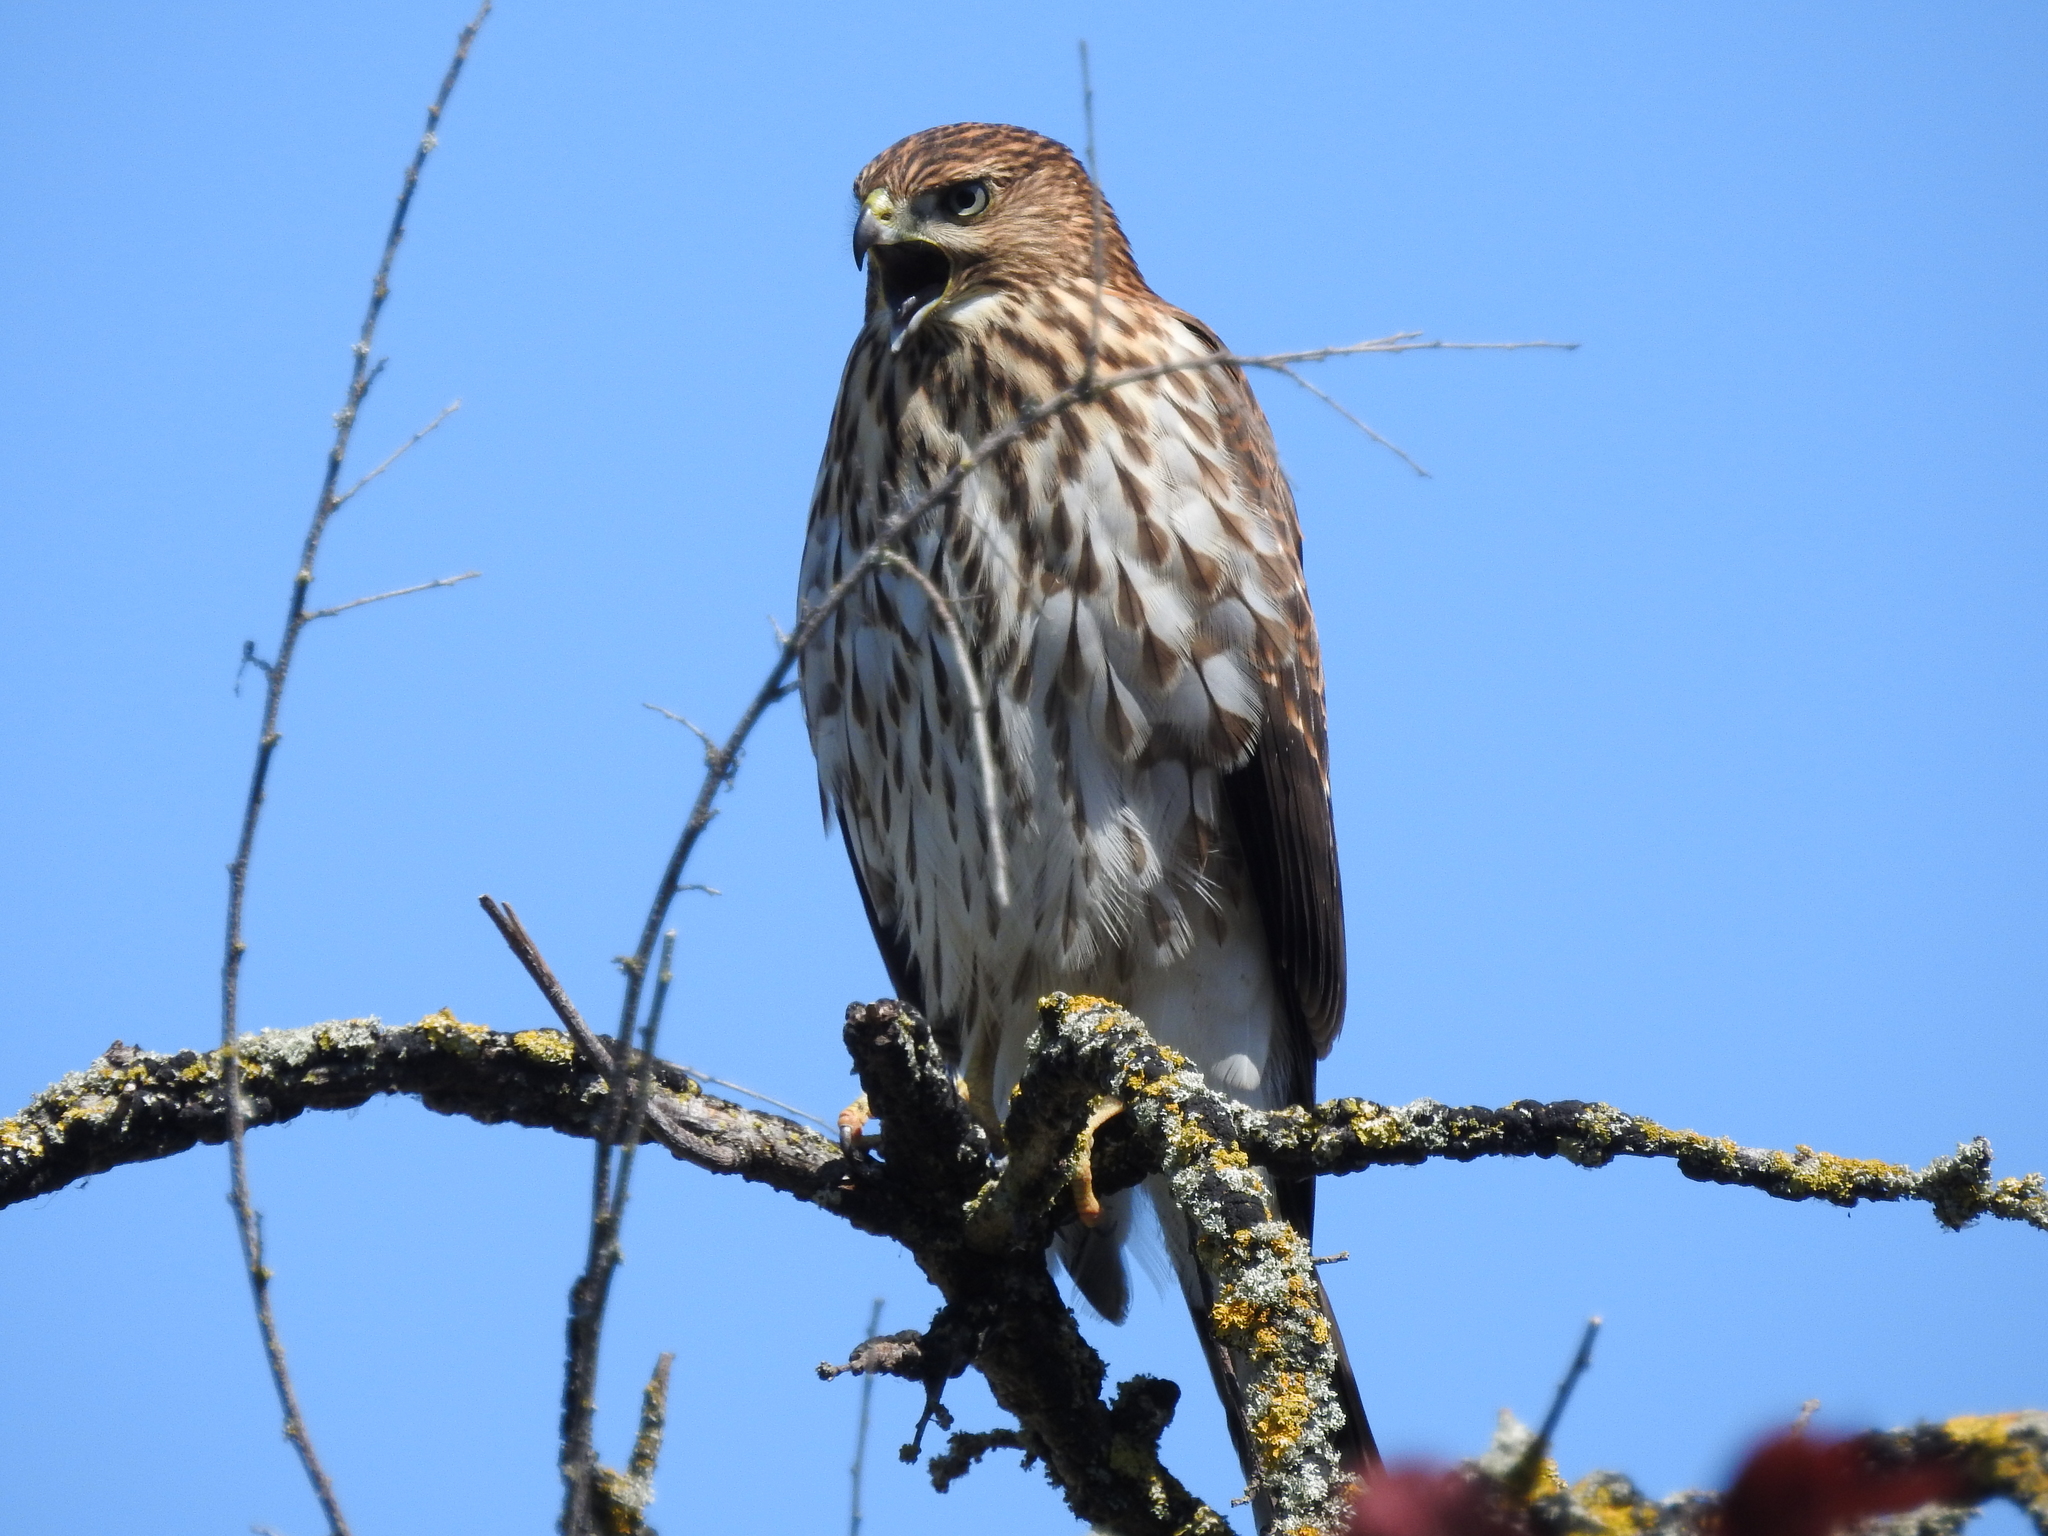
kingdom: Animalia
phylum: Chordata
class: Aves
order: Accipitriformes
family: Accipitridae
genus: Accipiter
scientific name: Accipiter cooperii
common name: Cooper's hawk
